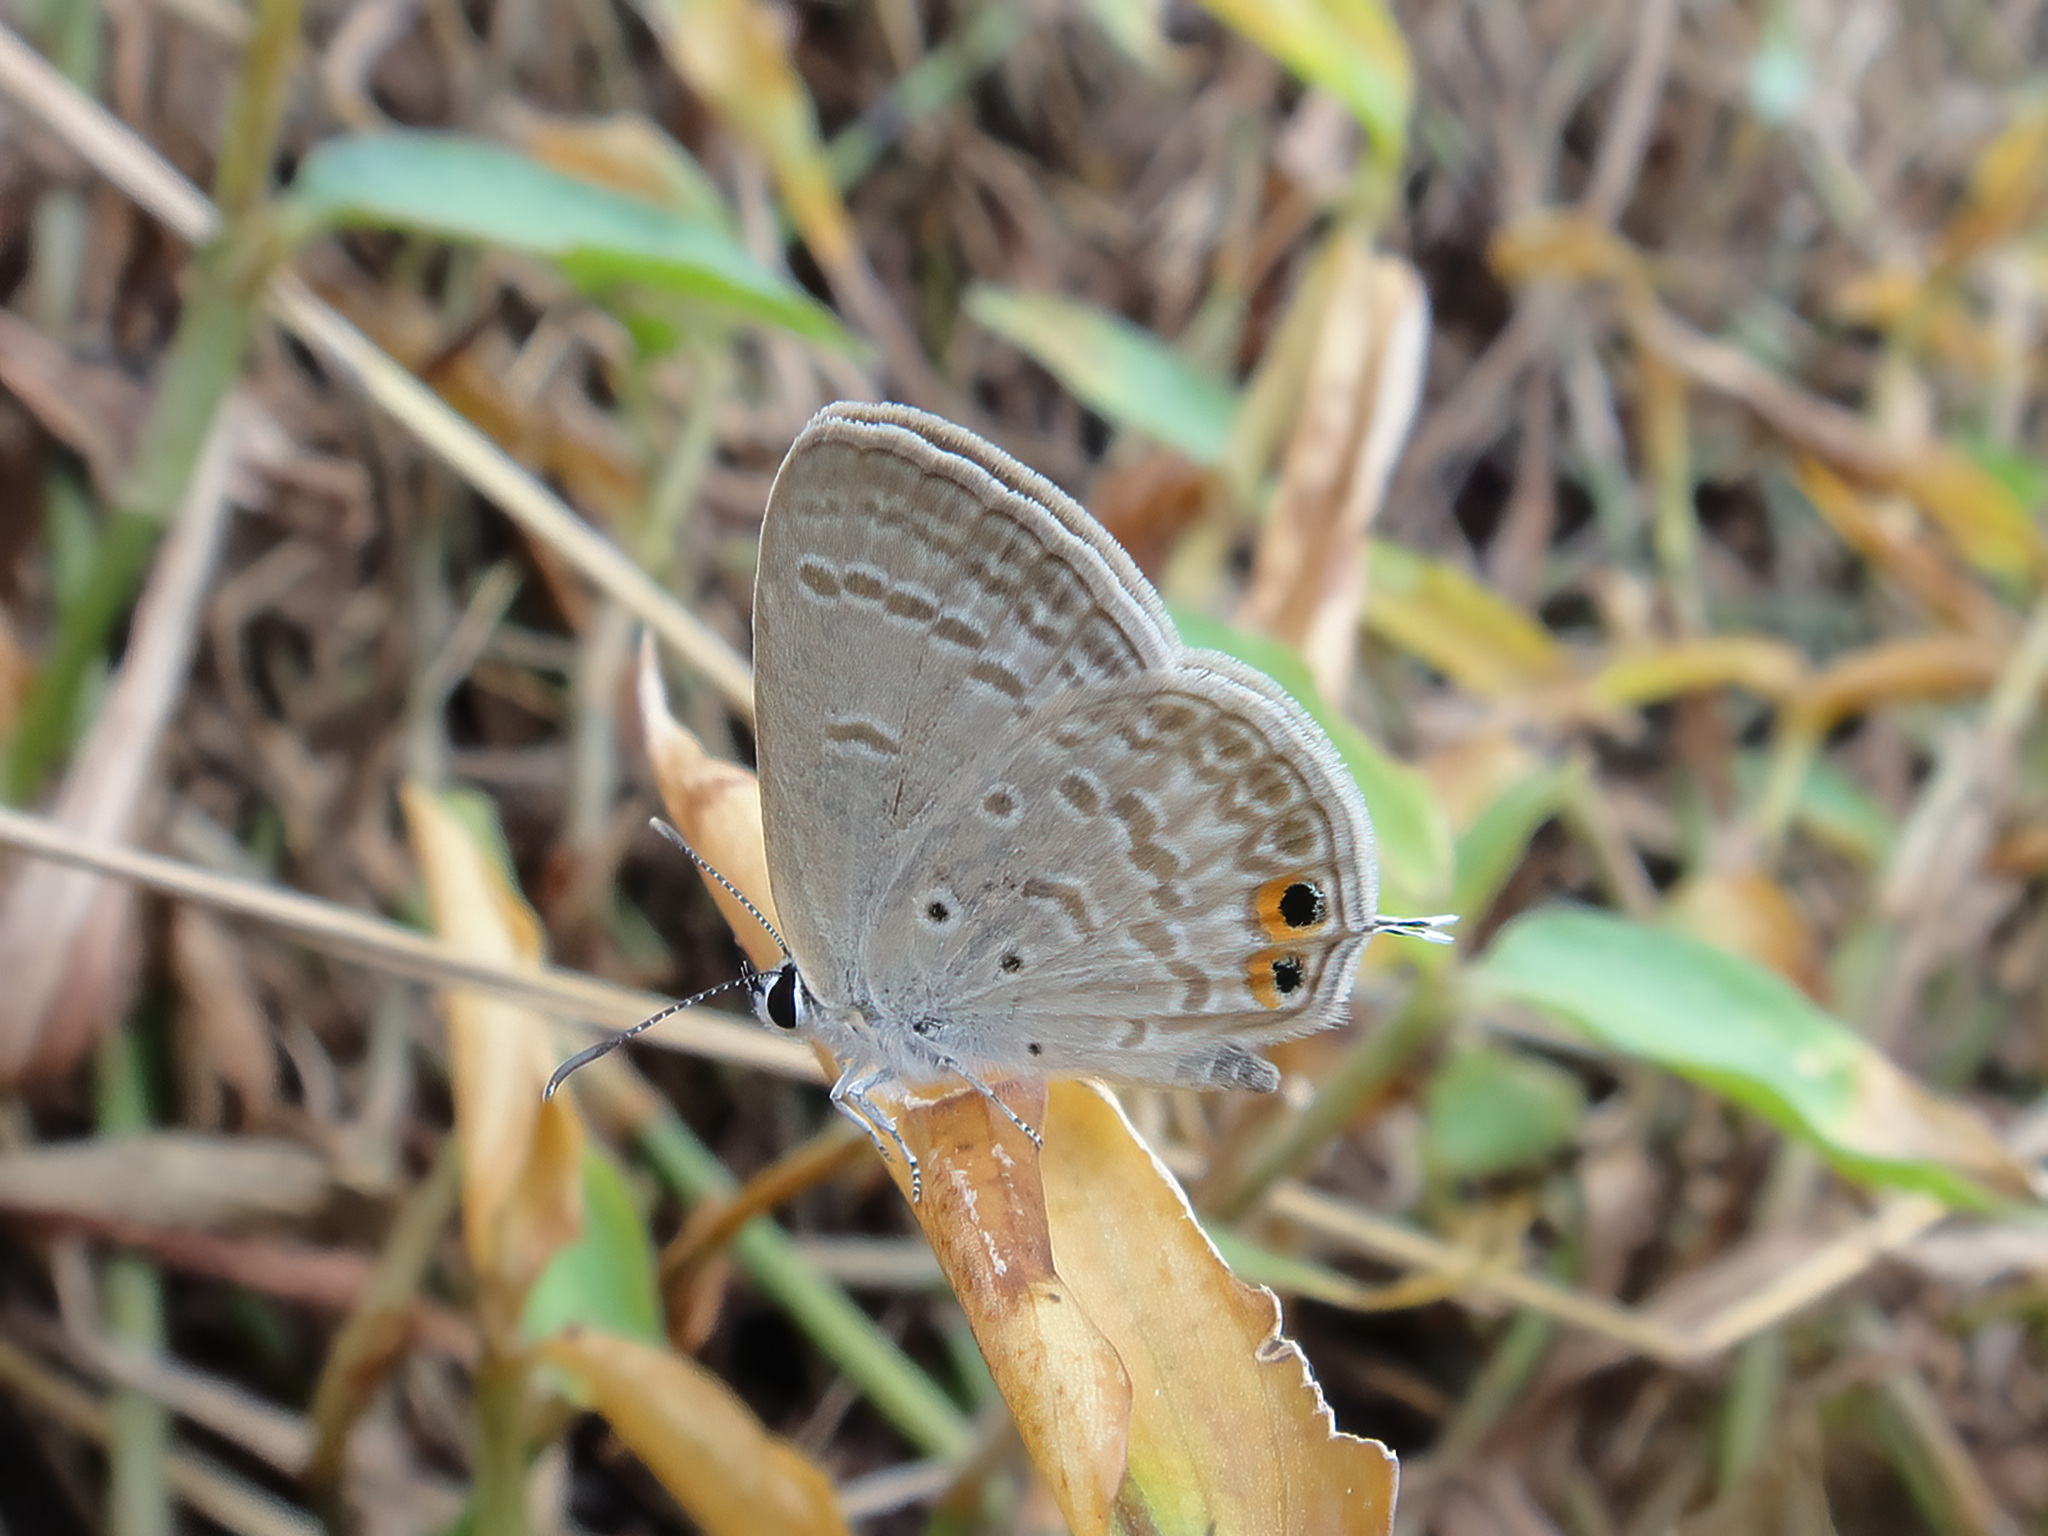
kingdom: Animalia
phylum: Arthropoda
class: Insecta
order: Lepidoptera
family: Lycaenidae
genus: Euchrysops
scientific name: Euchrysops cnejus
